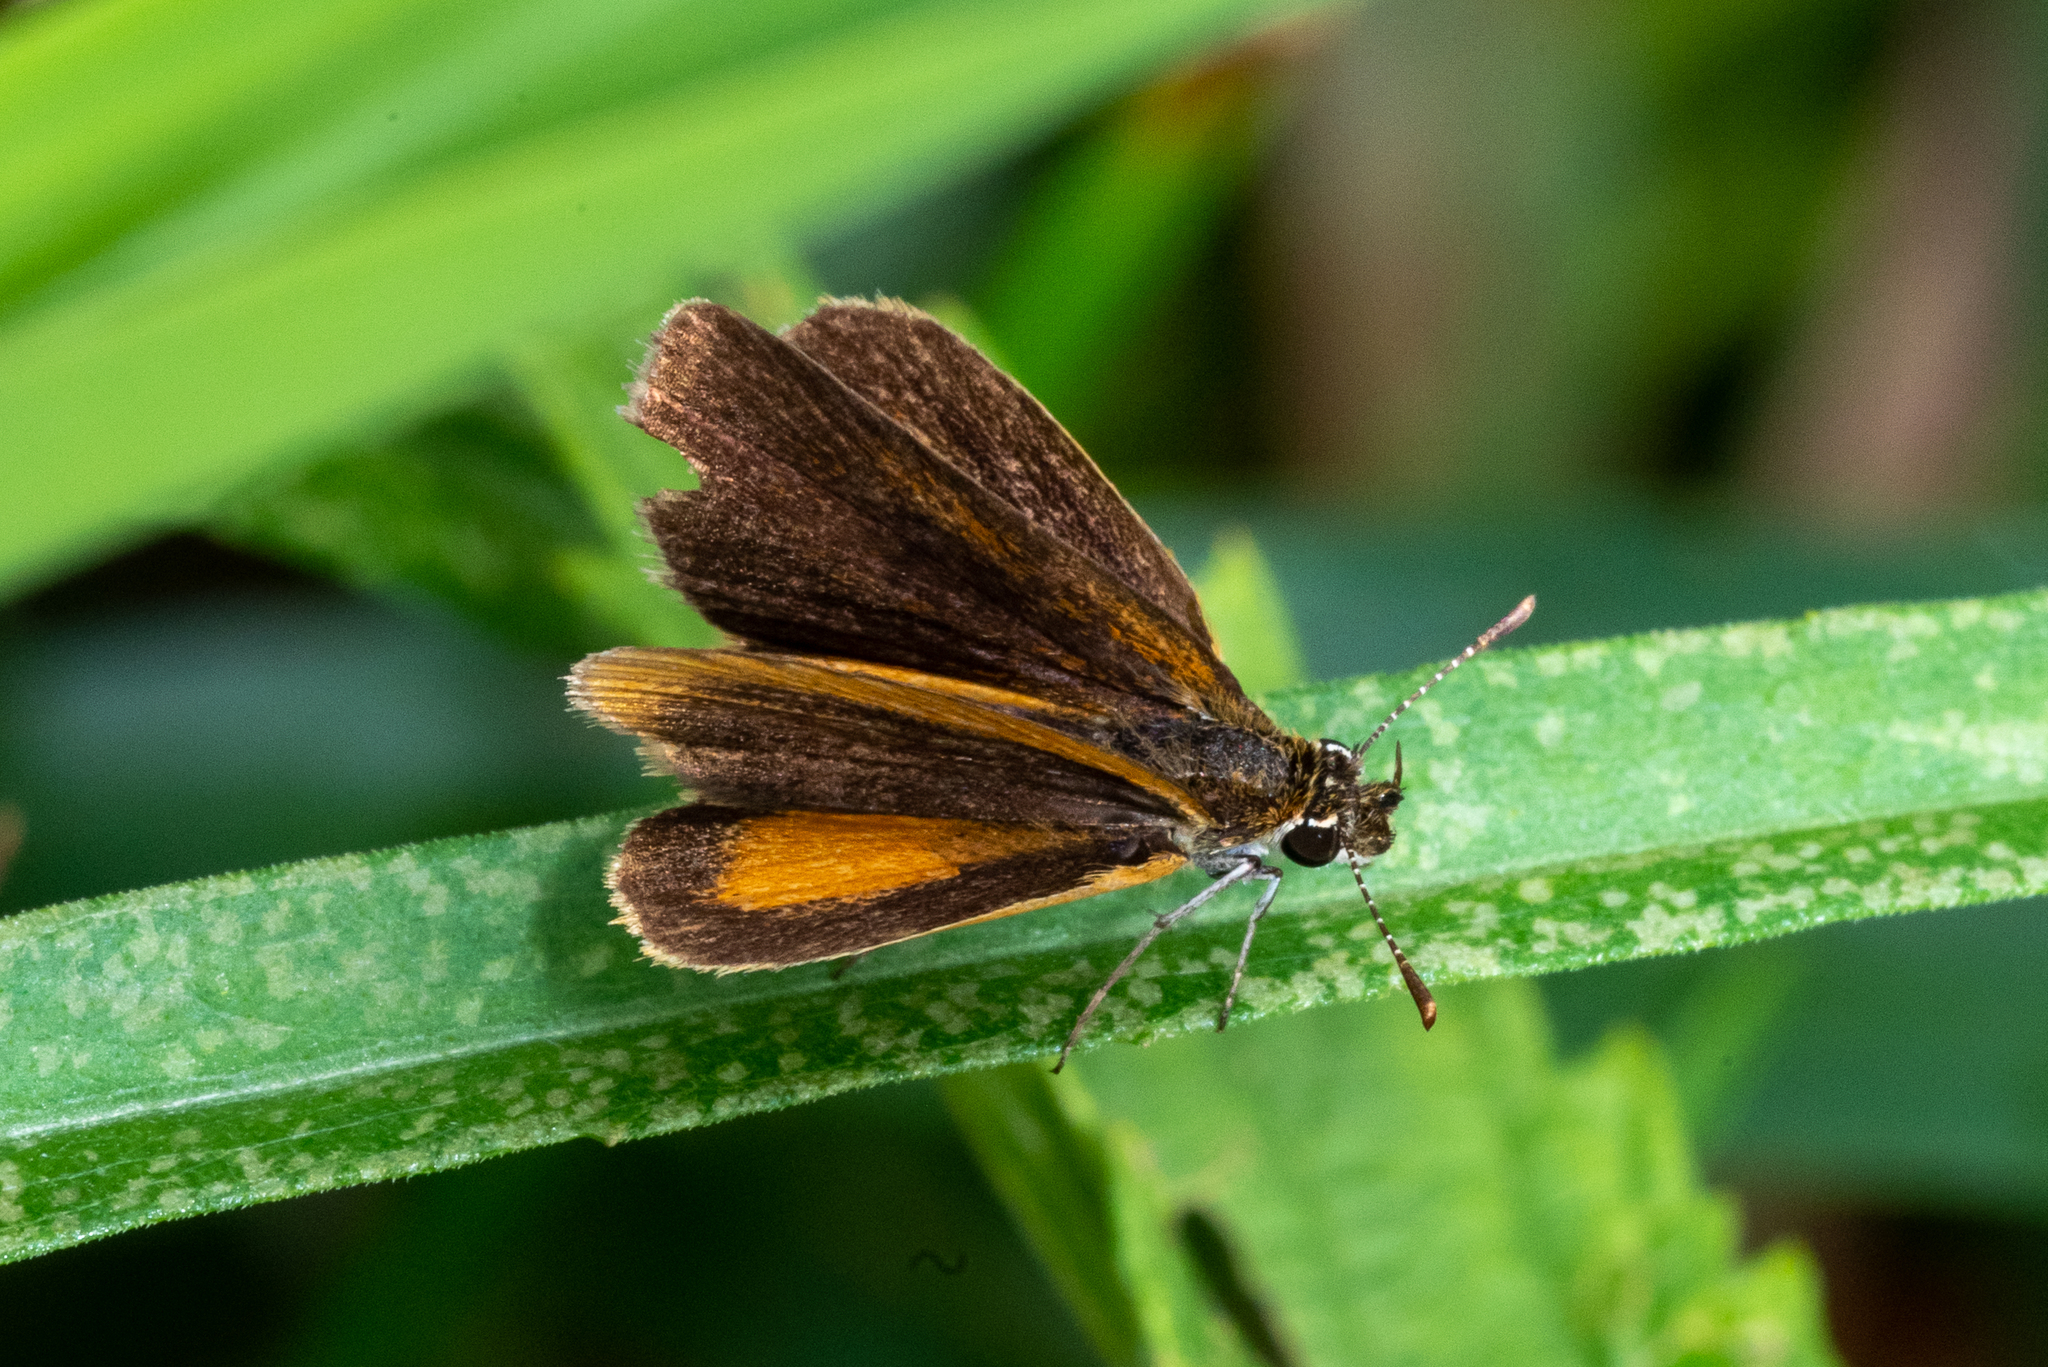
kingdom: Animalia
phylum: Arthropoda
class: Insecta
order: Lepidoptera
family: Hesperiidae
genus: Ancyloxypha
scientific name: Ancyloxypha numitor
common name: Least skipper
